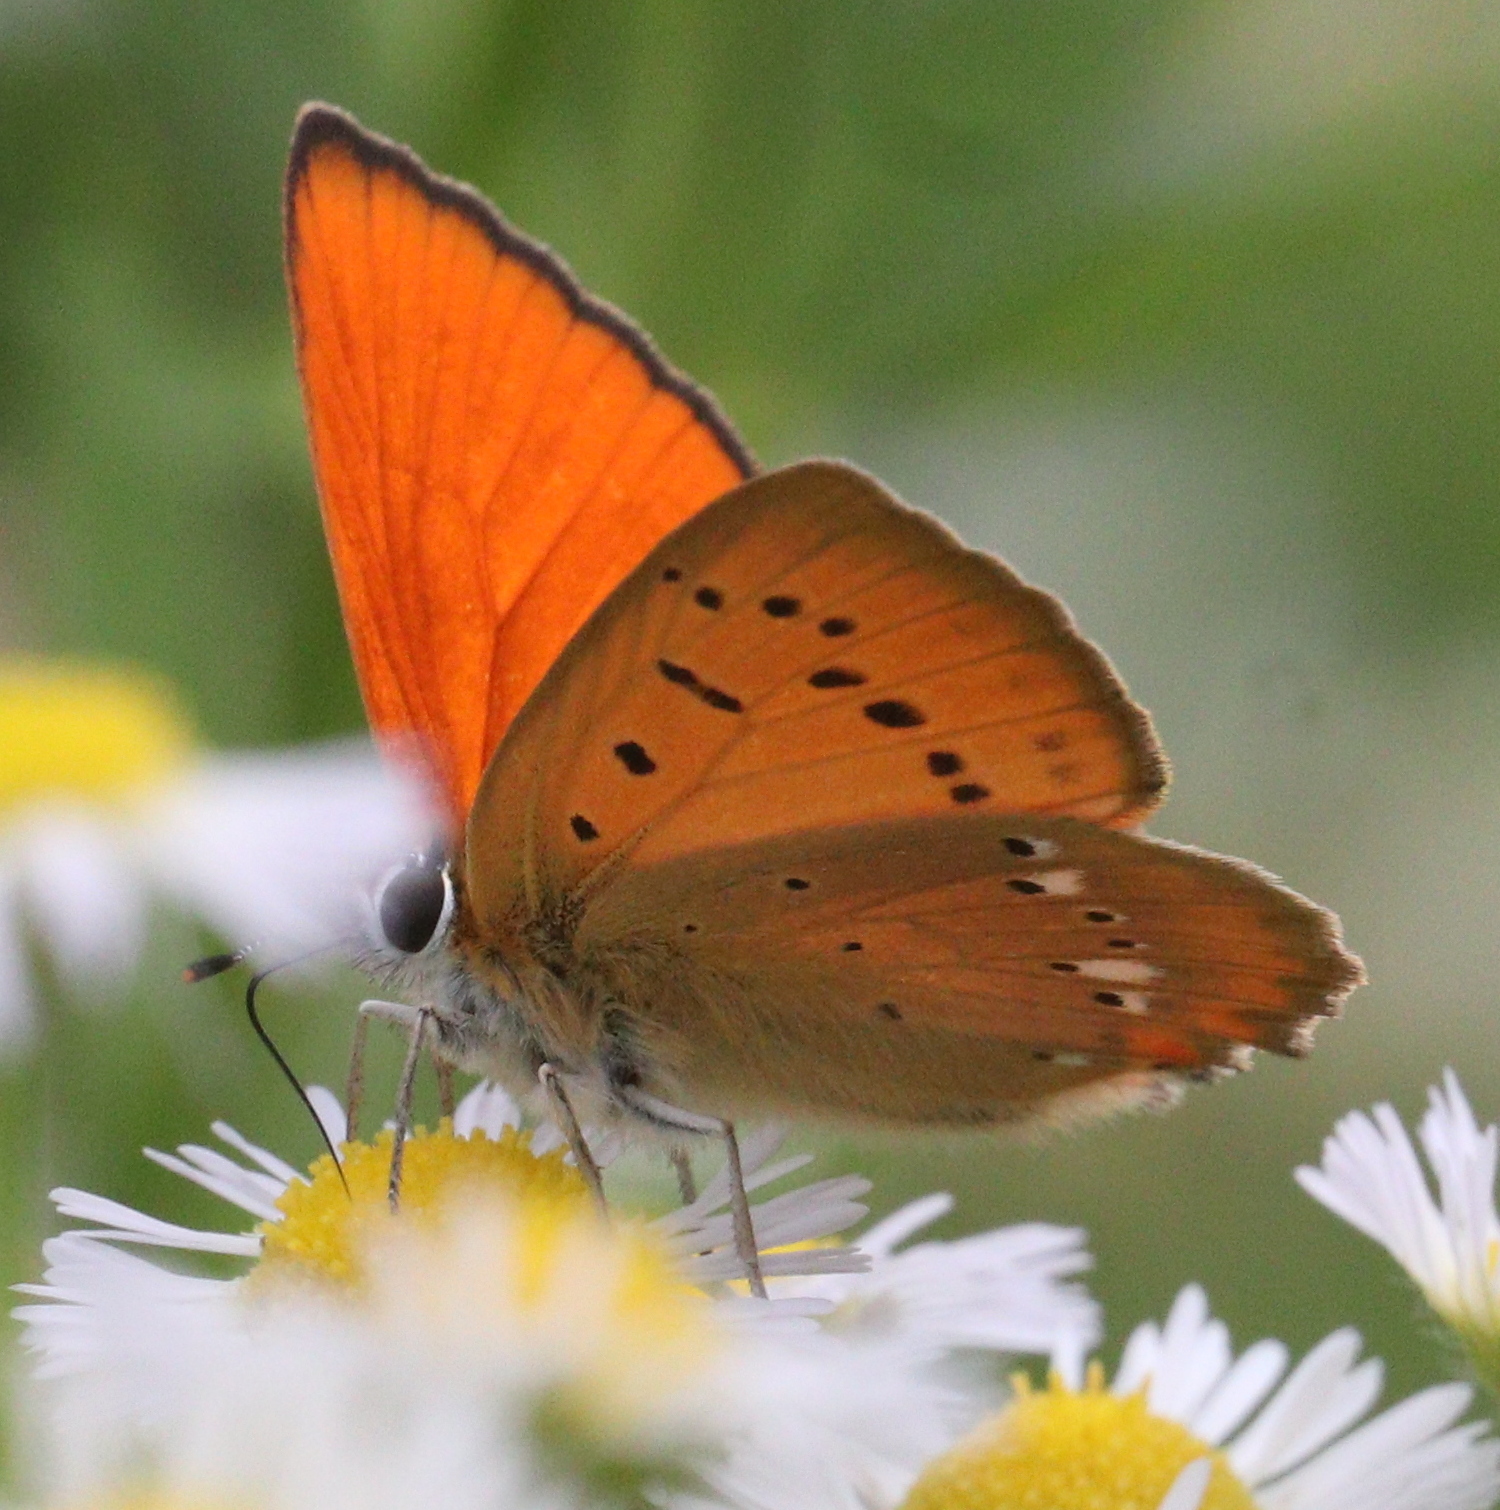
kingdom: Animalia
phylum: Arthropoda
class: Insecta
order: Lepidoptera
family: Lycaenidae
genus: Lycaena
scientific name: Lycaena virgaureae
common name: Scarce copper
